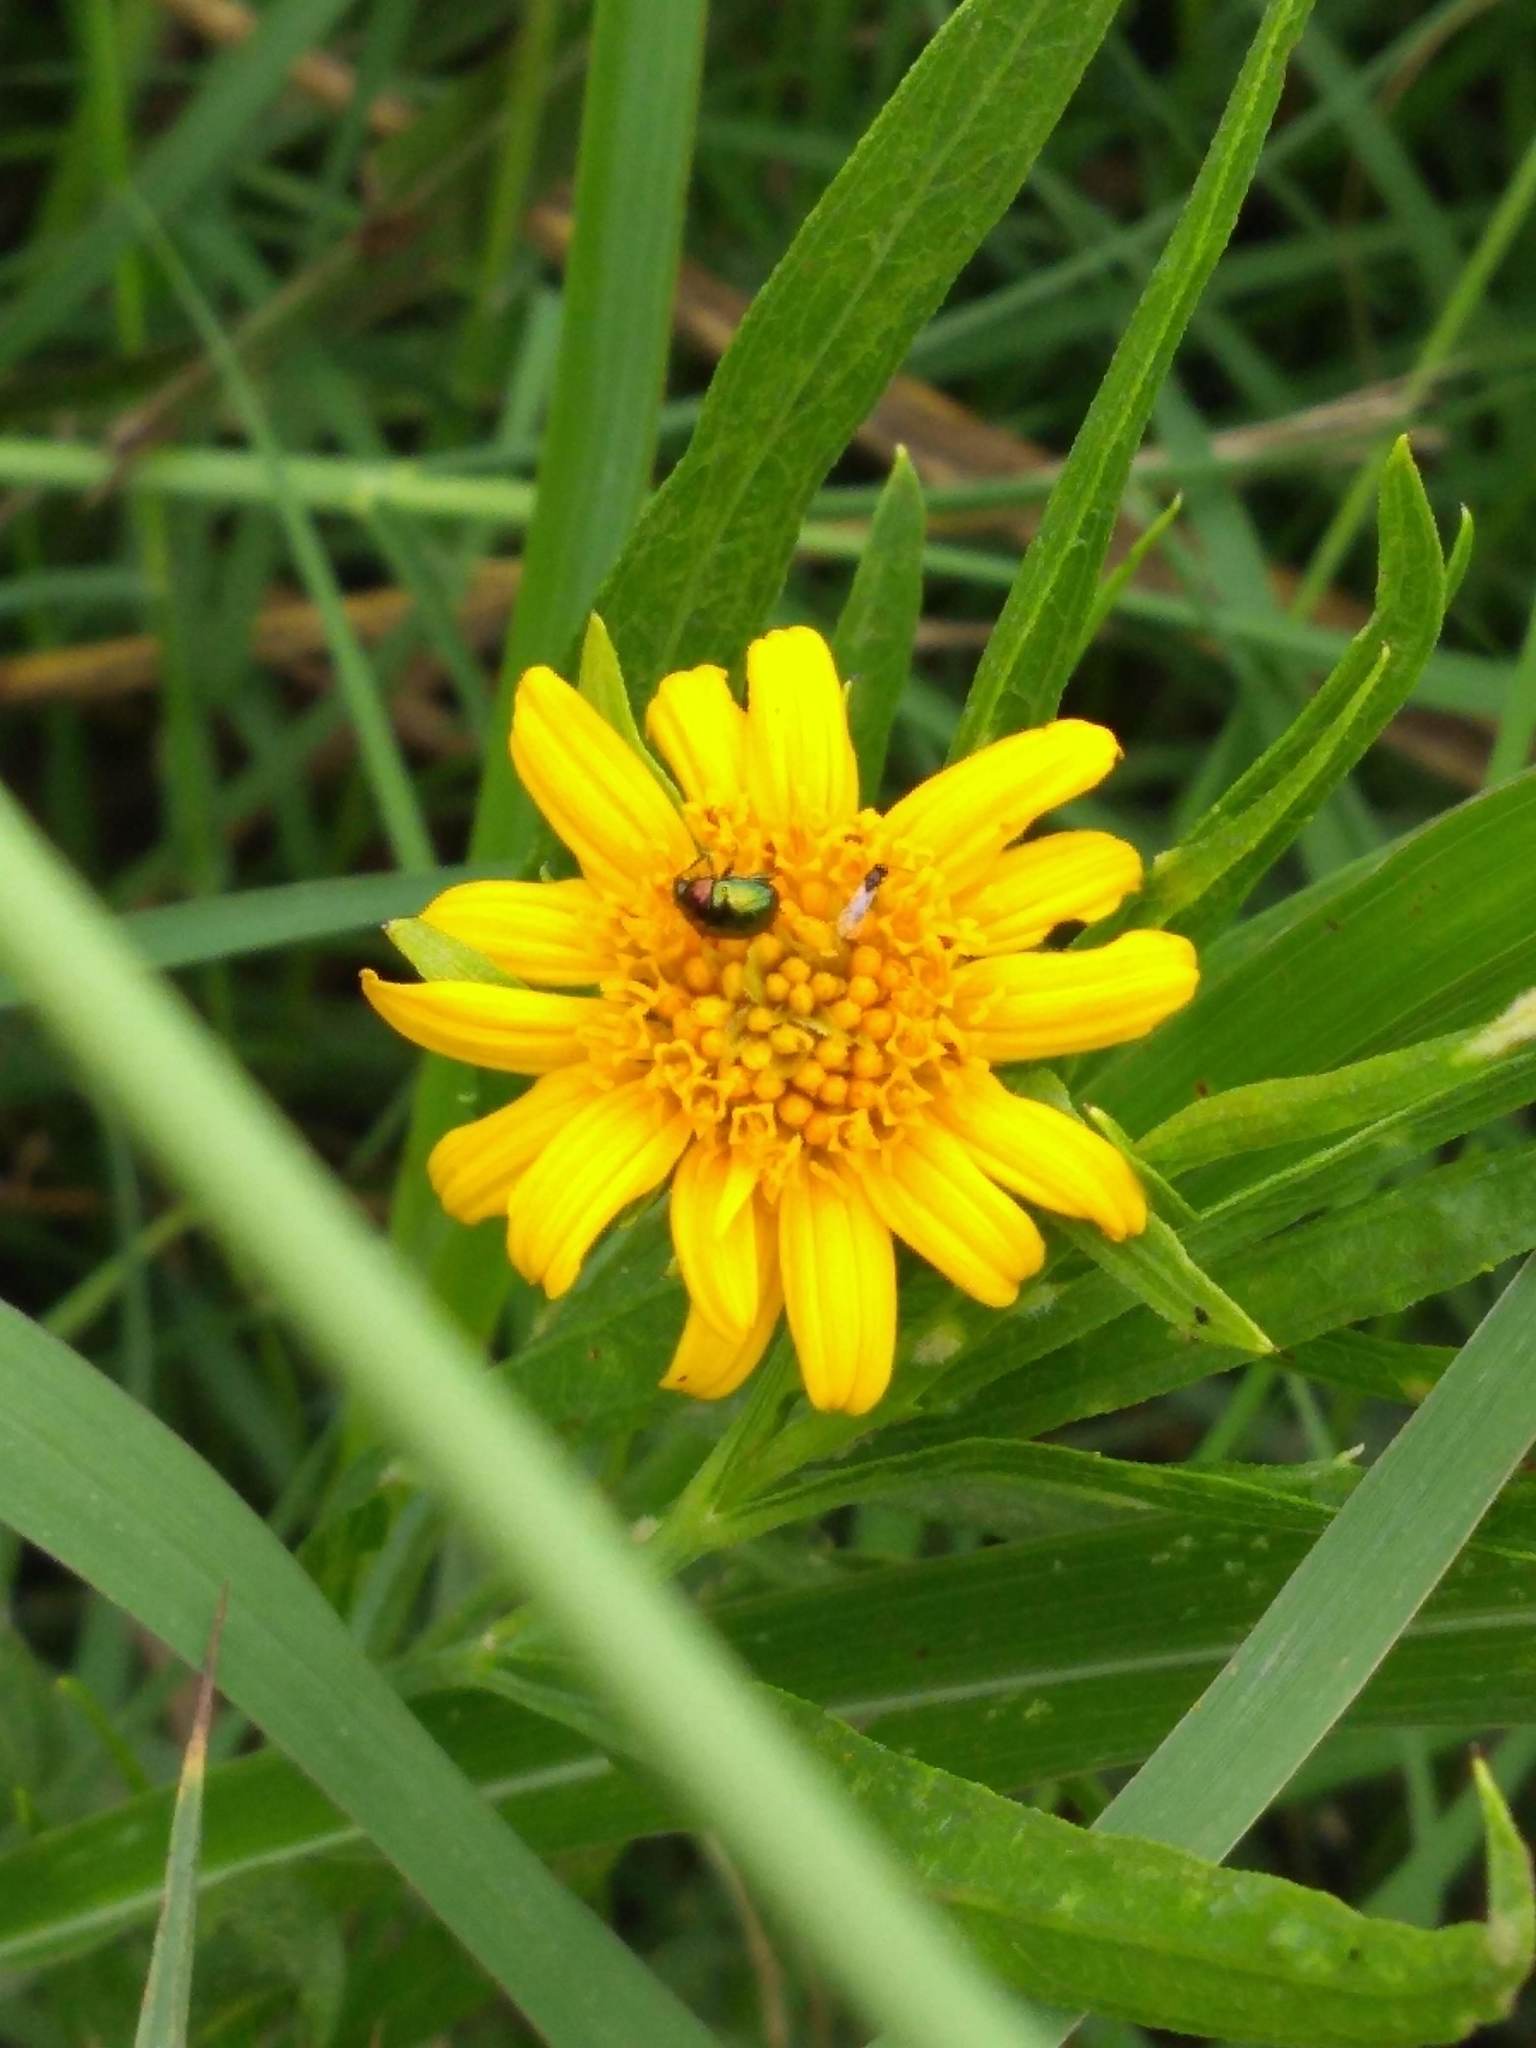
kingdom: Plantae
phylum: Tracheophyta
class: Magnoliopsida
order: Asterales
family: Asteraceae
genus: Pascalia
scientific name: Pascalia glauca
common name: Beach creeping oxeye
